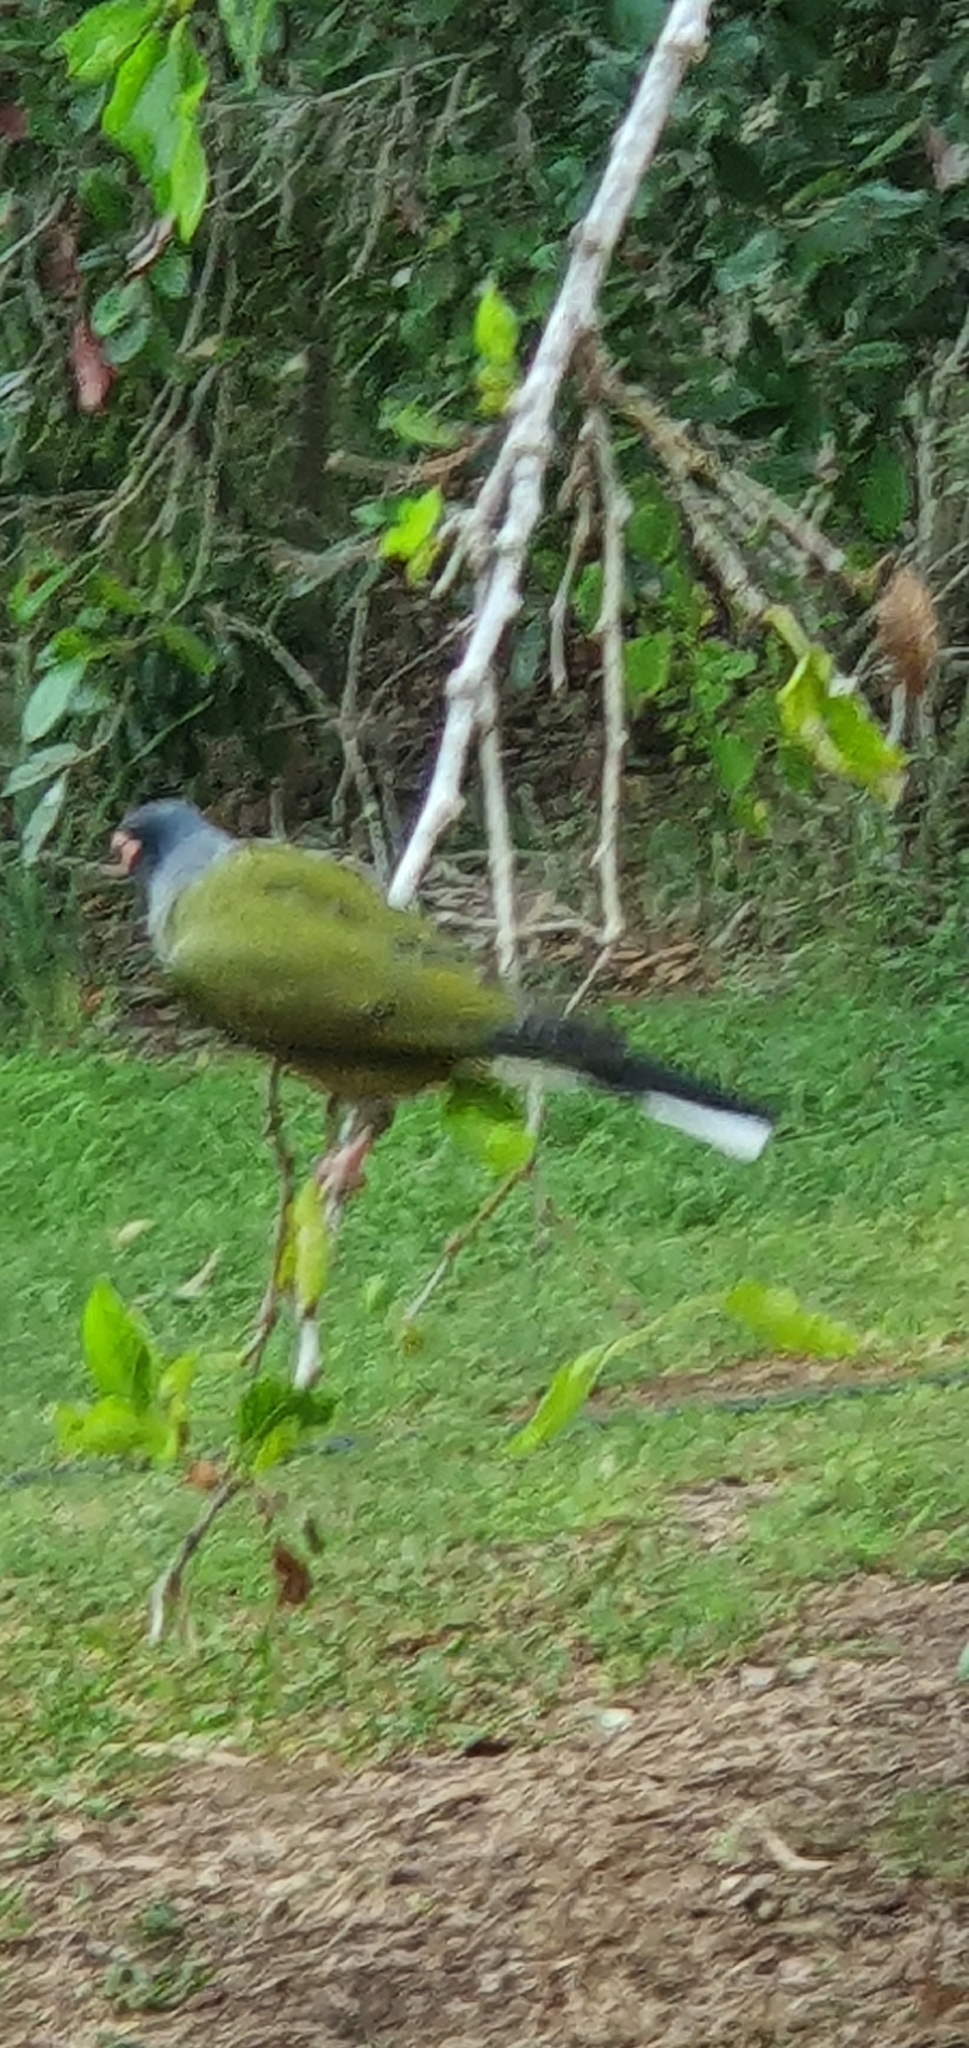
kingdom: Animalia
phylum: Chordata
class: Aves
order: Passeriformes
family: Oriolidae
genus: Sphecotheres
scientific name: Sphecotheres vieilloti
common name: Australasian figbird
